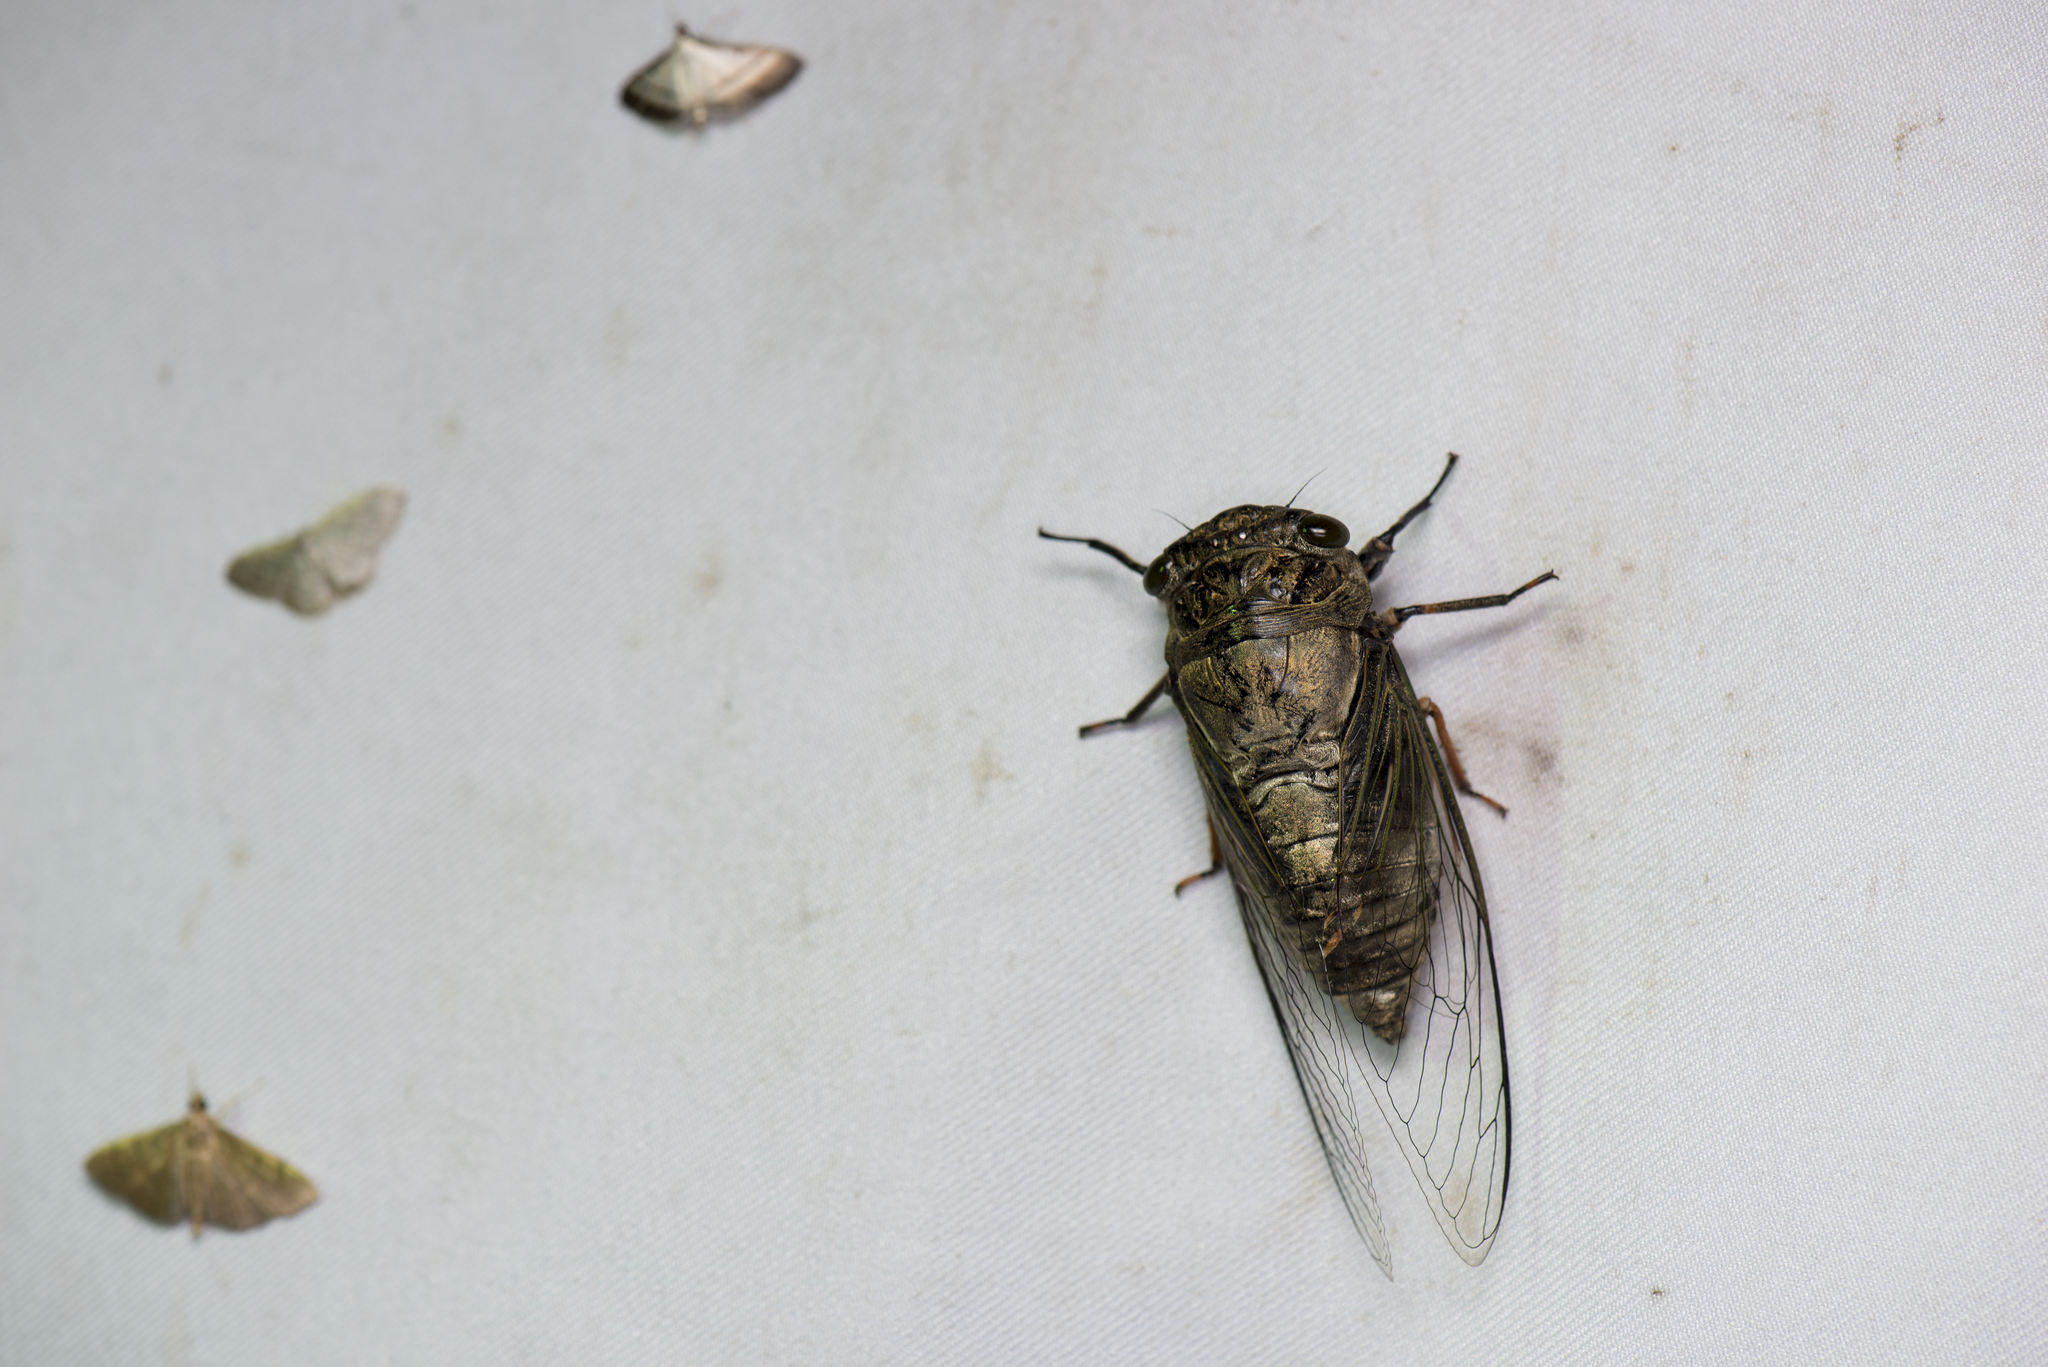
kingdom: Animalia
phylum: Arthropoda
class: Insecta
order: Hemiptera
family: Cicadidae
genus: Cryptotympana
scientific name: Cryptotympana takasagona
